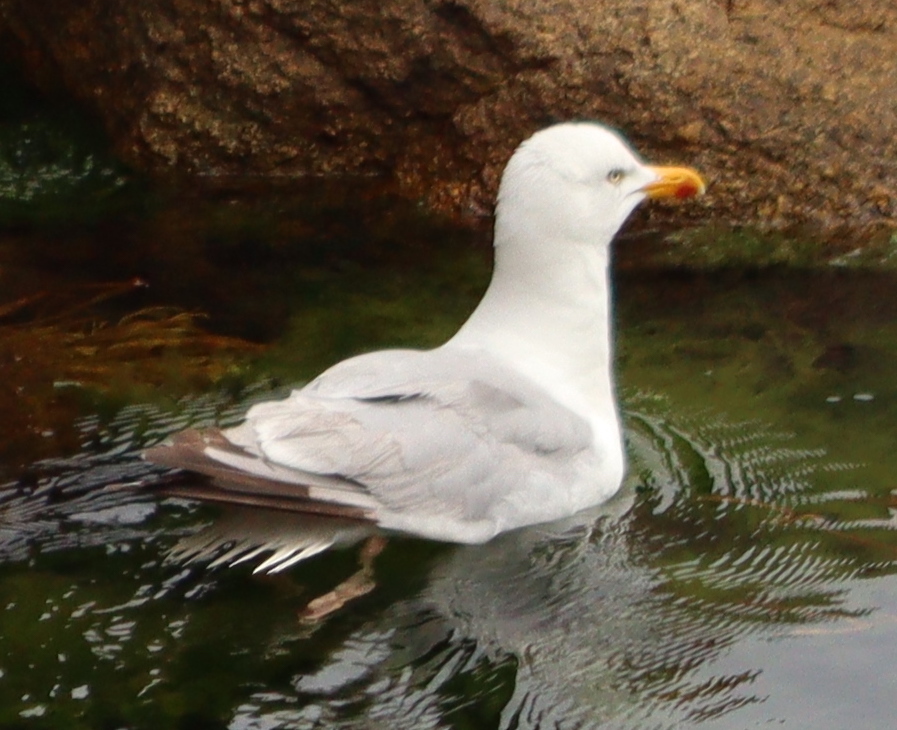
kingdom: Animalia
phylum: Chordata
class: Aves
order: Charadriiformes
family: Laridae
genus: Larus
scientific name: Larus argentatus
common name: Herring gull
